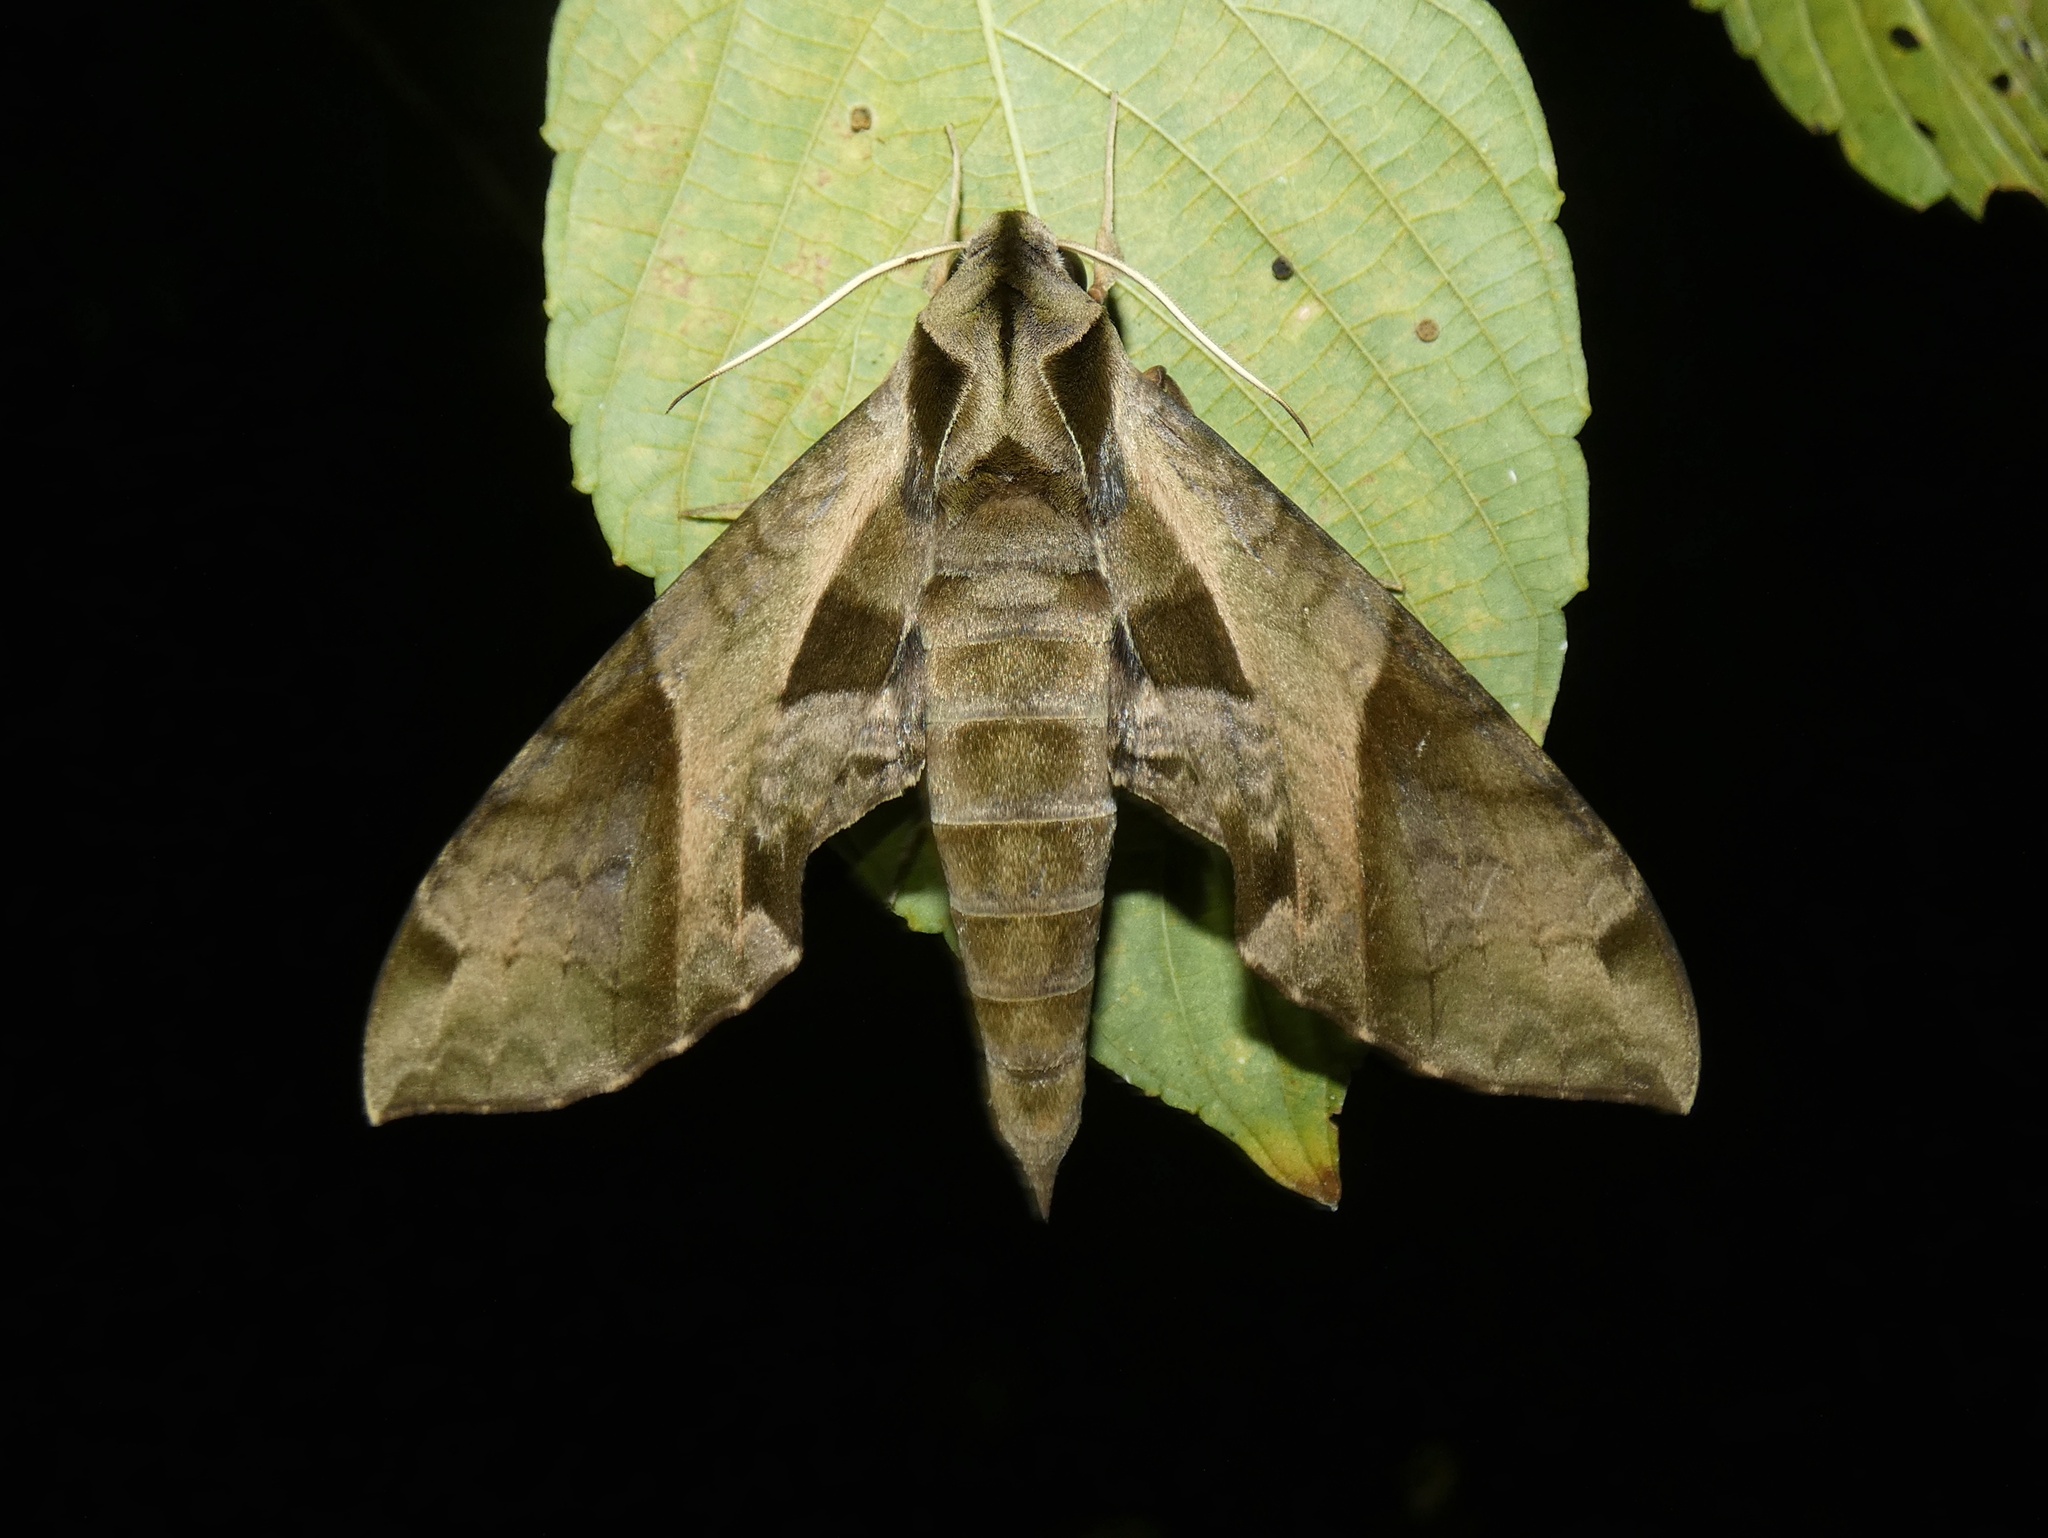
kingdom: Animalia
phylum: Arthropoda
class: Insecta
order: Lepidoptera
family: Sphingidae
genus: Eumorpha
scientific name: Eumorpha satellitia
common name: Satellite sphinx
